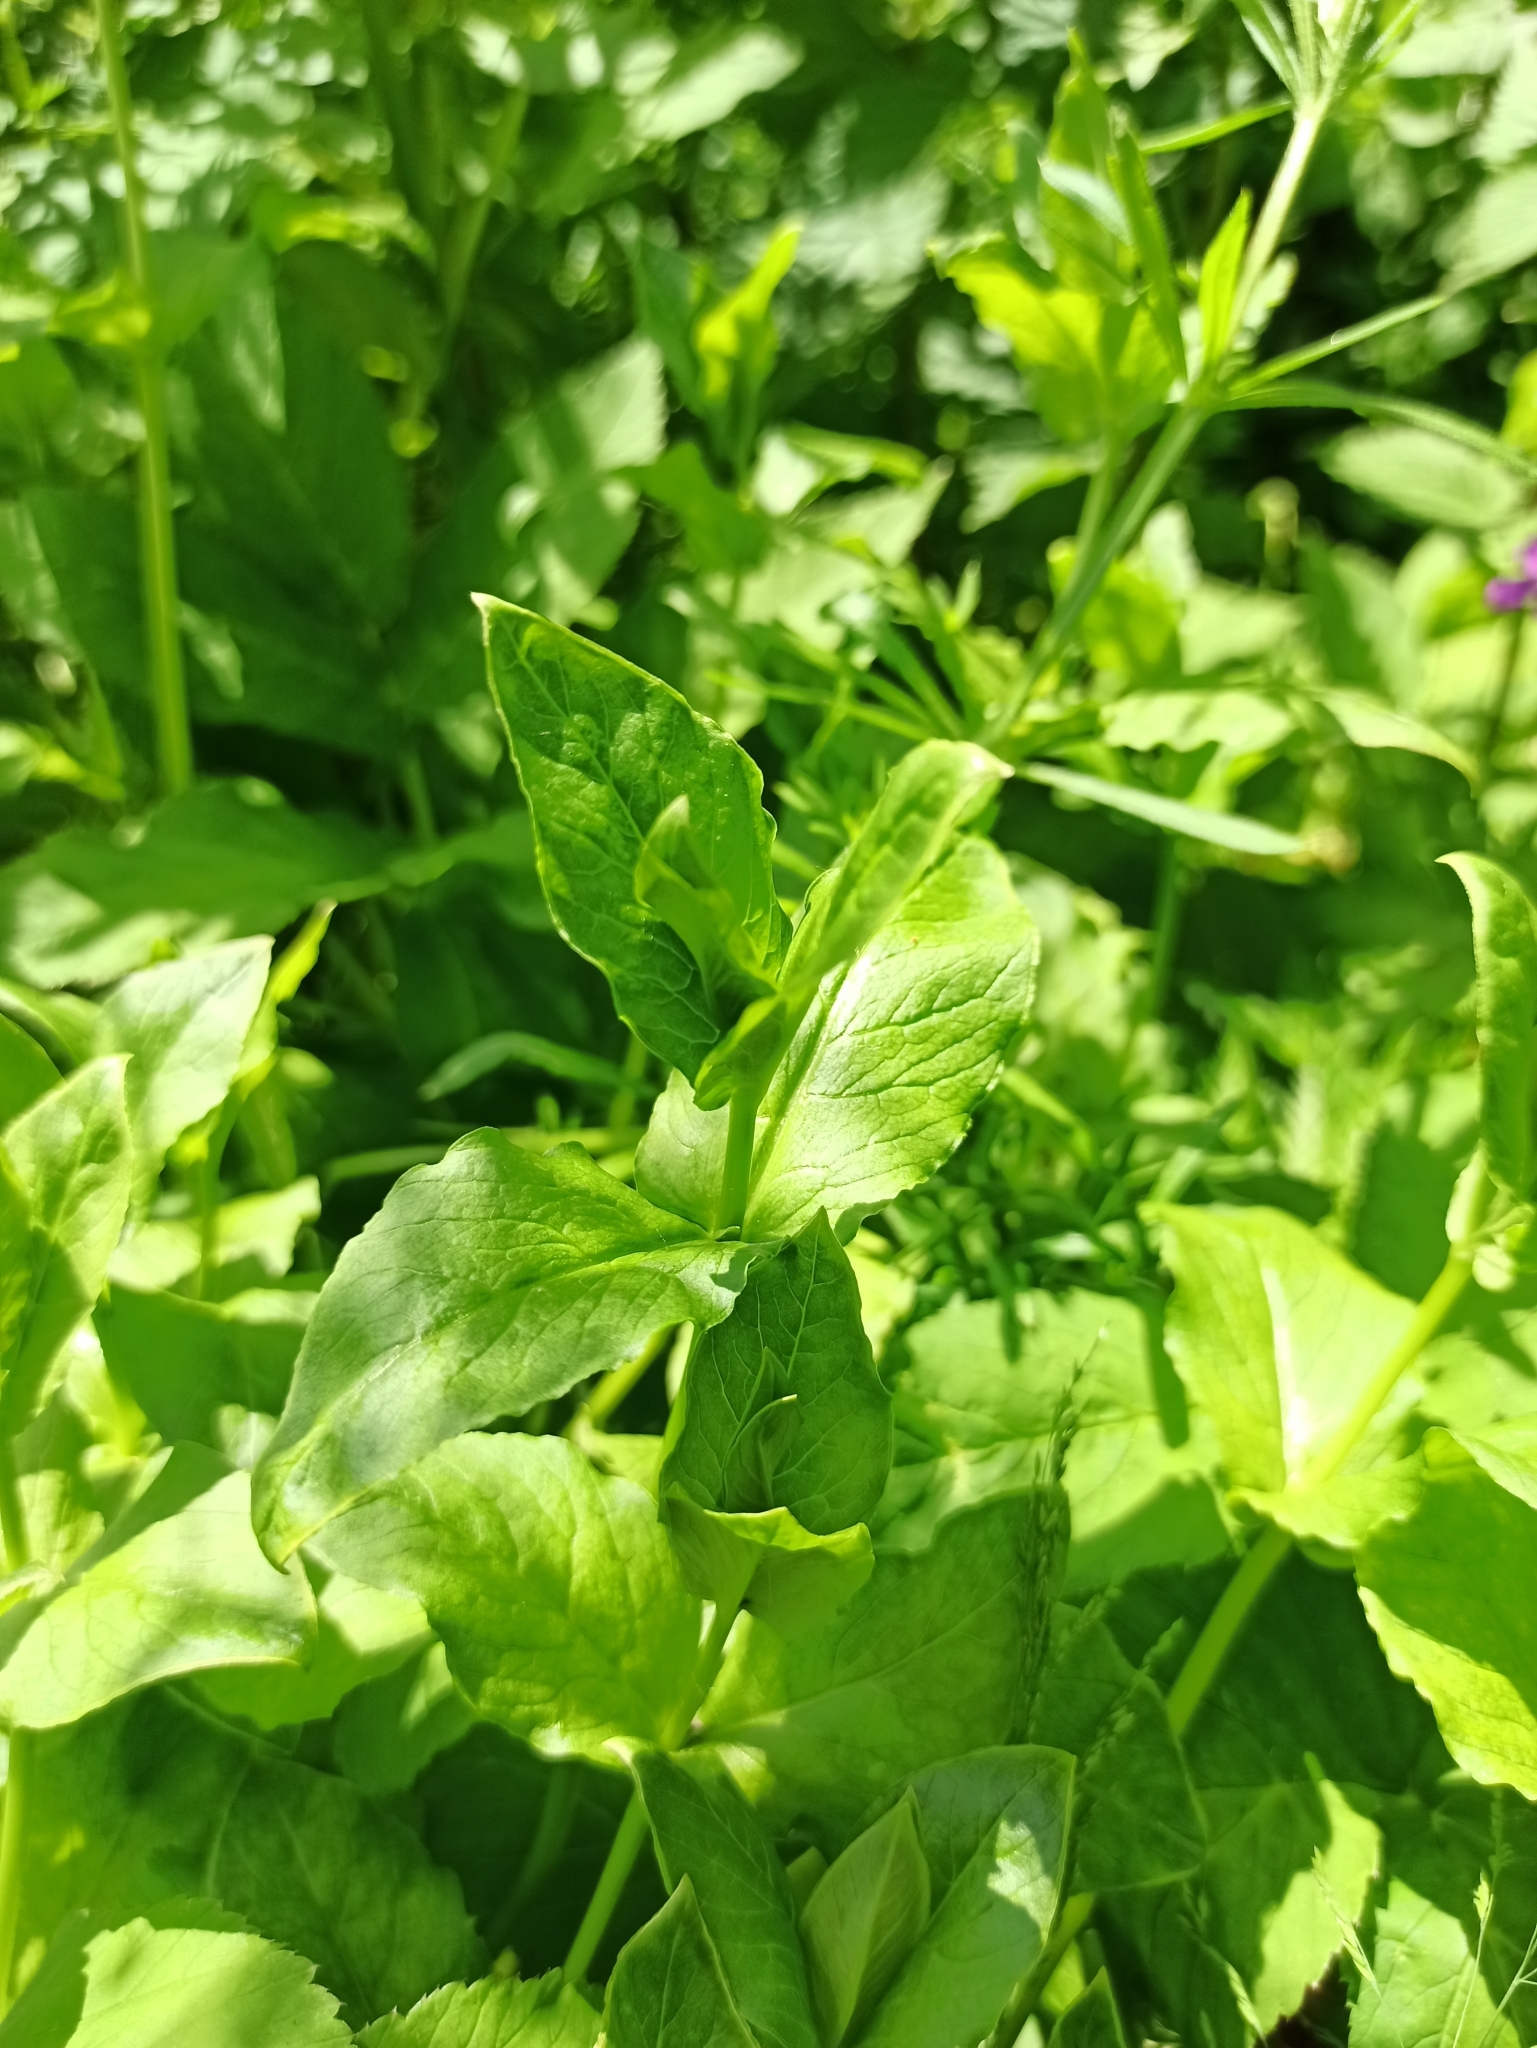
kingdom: Plantae
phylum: Tracheophyta
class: Magnoliopsida
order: Caryophyllales
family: Caryophyllaceae
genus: Stellaria
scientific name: Stellaria aquatica
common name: Water chickweed
